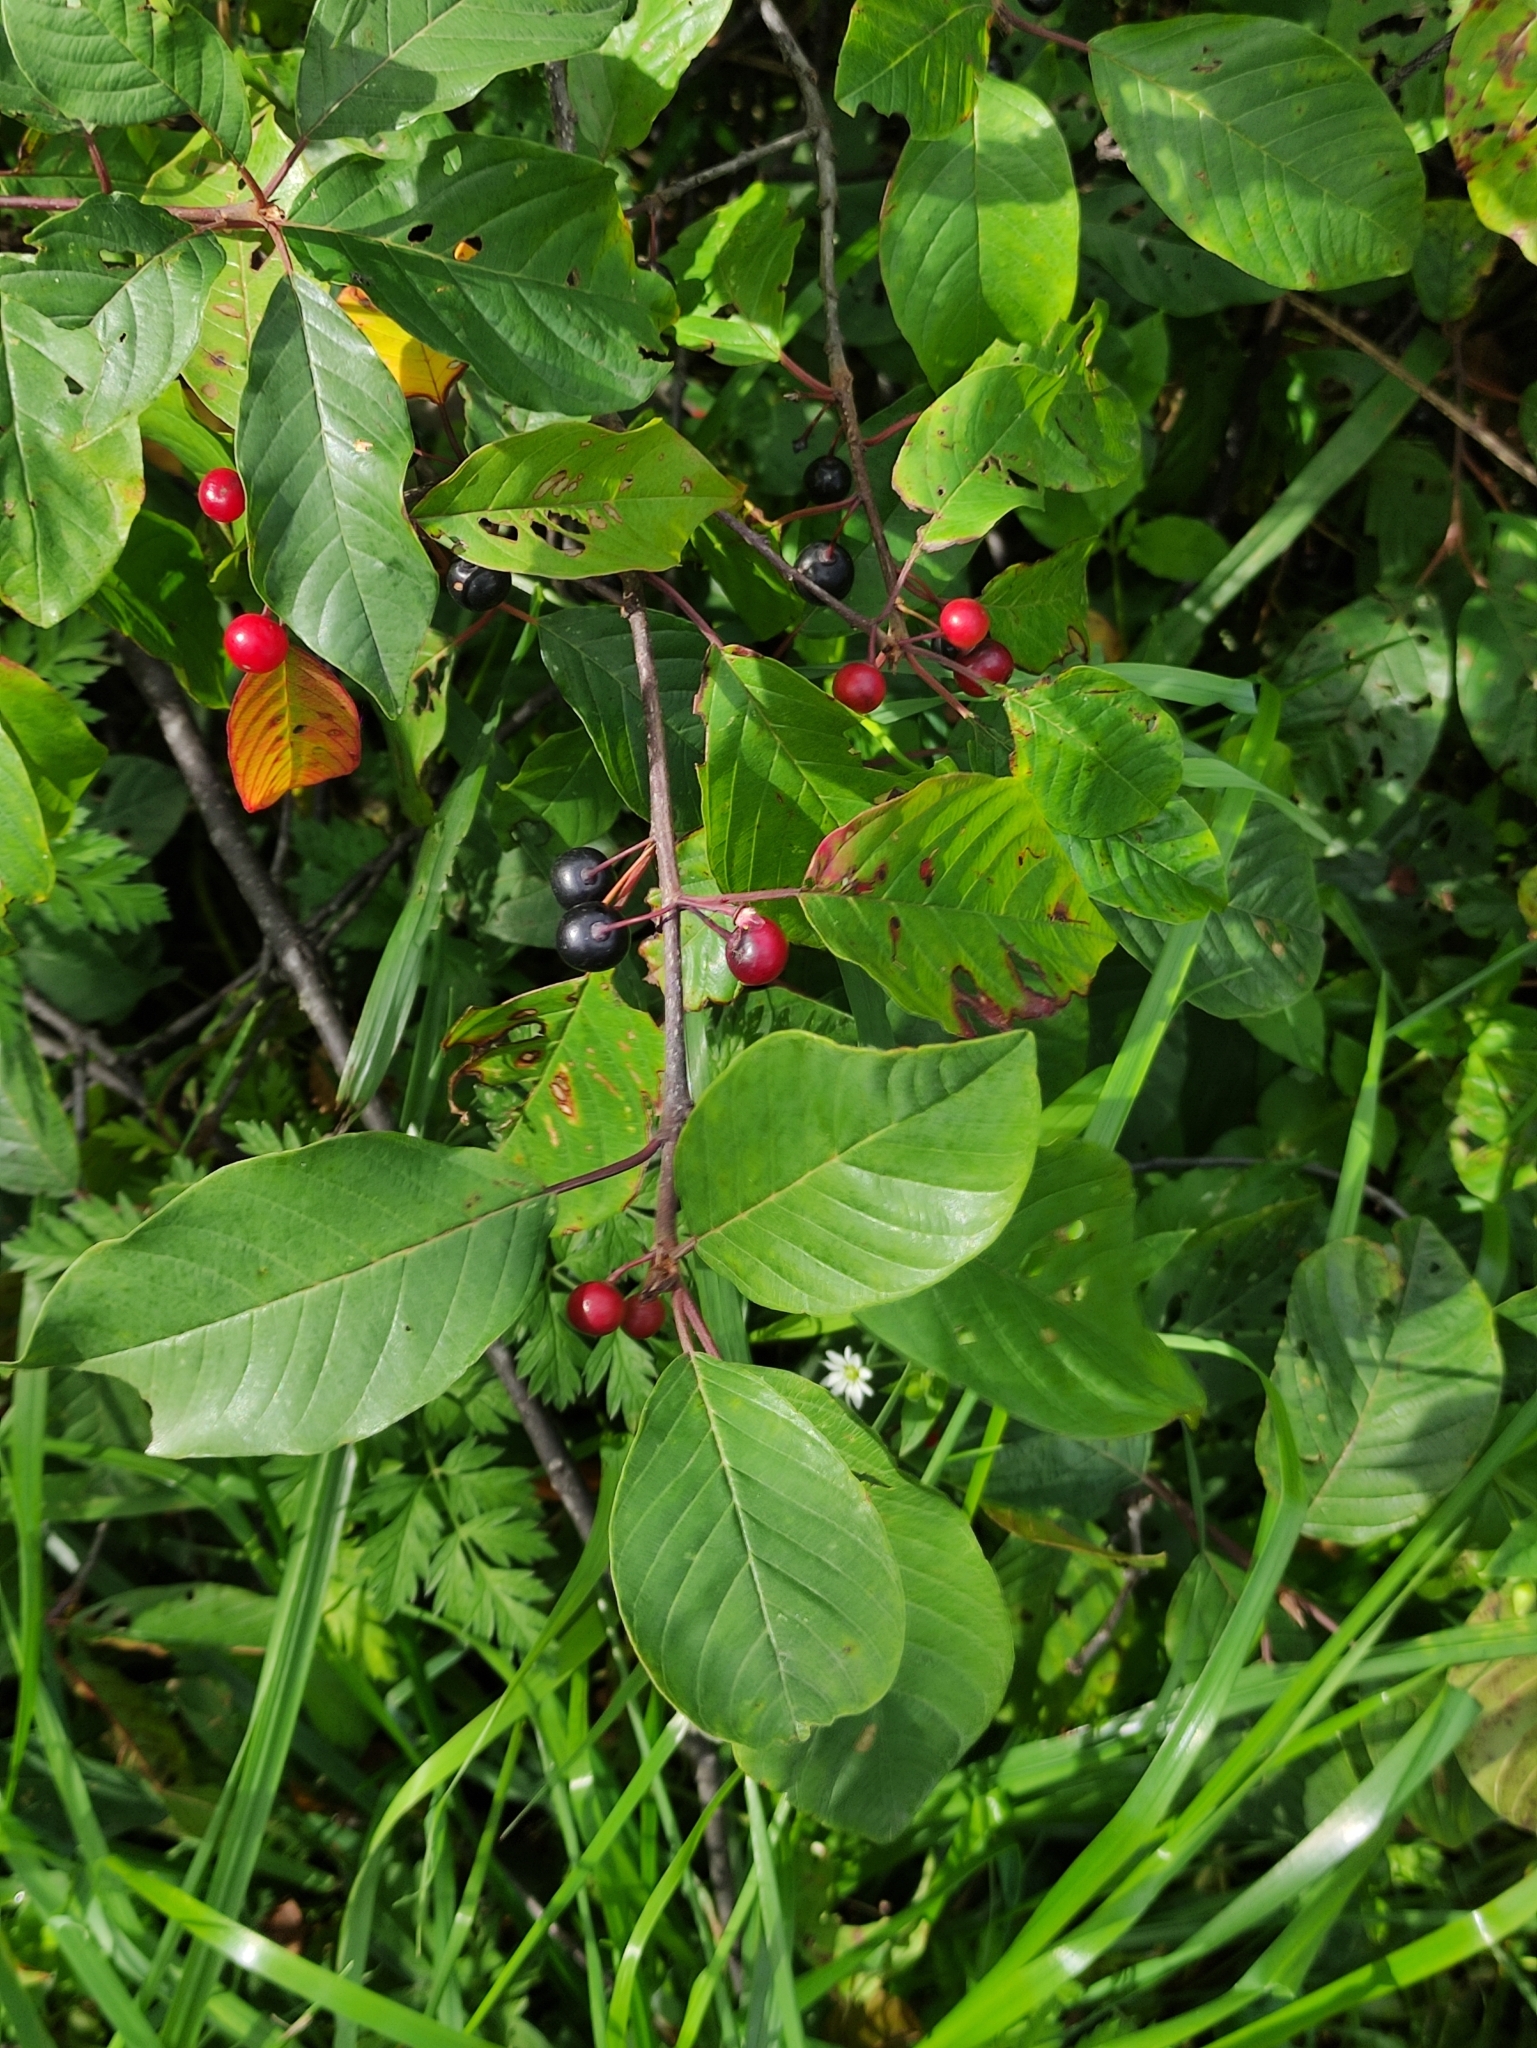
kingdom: Plantae
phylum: Tracheophyta
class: Magnoliopsida
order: Rosales
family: Rhamnaceae
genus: Frangula
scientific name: Frangula alnus
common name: Alder buckthorn
